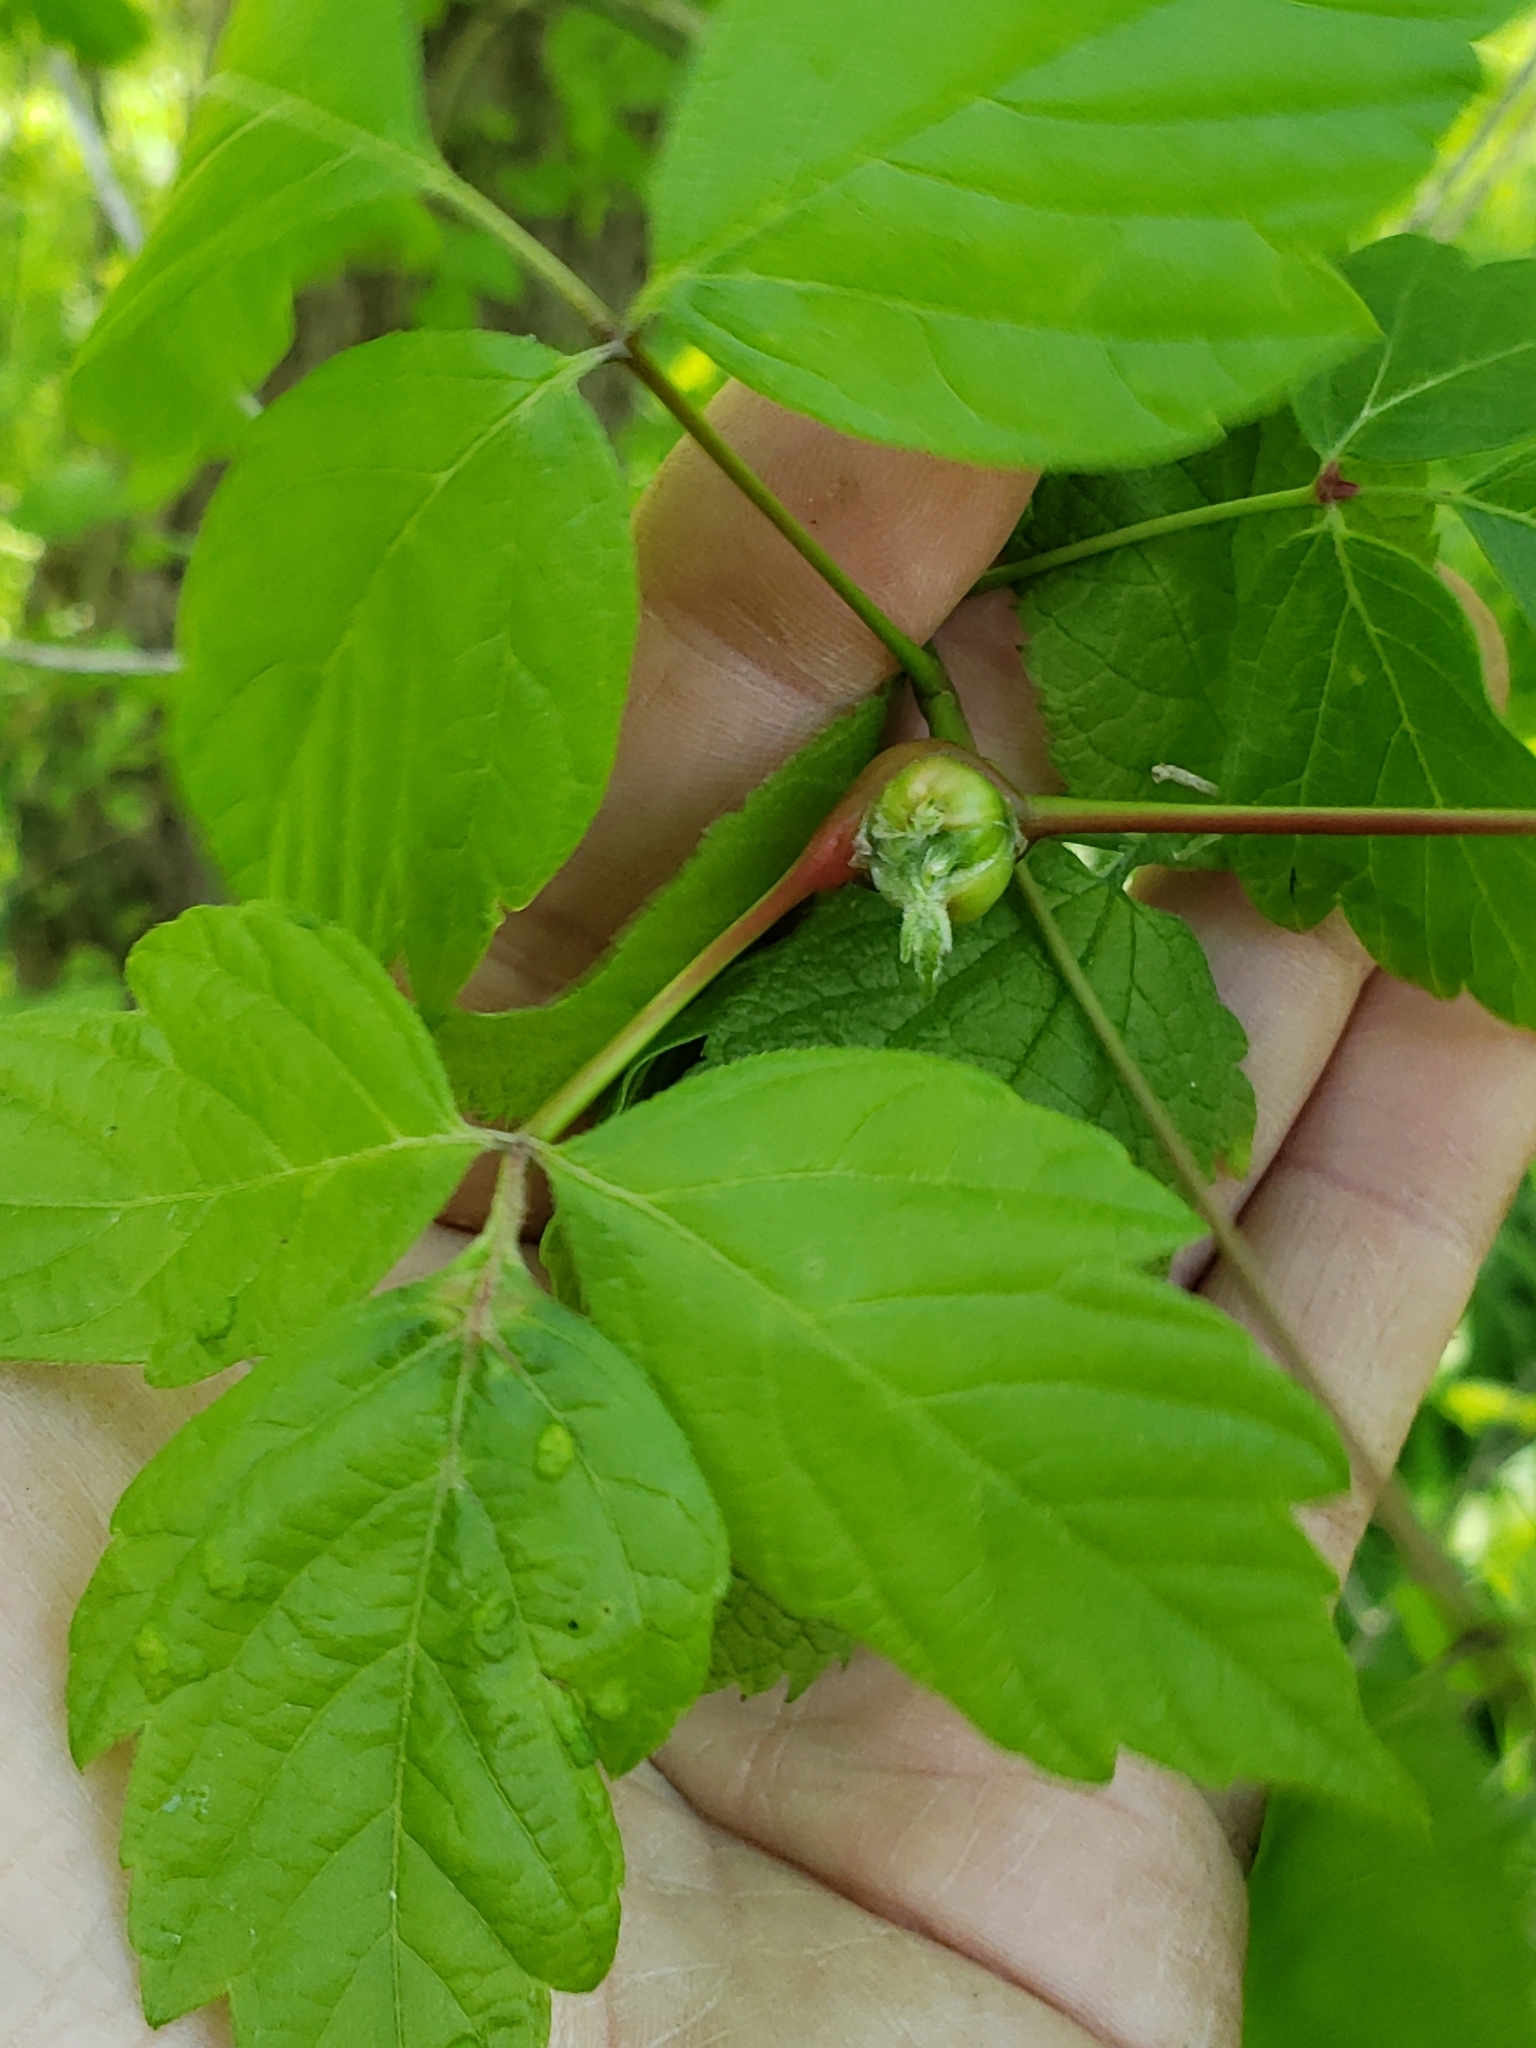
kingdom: Animalia
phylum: Arthropoda
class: Insecta
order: Diptera
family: Cecidomyiidae
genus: Contarinia
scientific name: Contarinia negundinis
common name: Boxelder budgall midge
